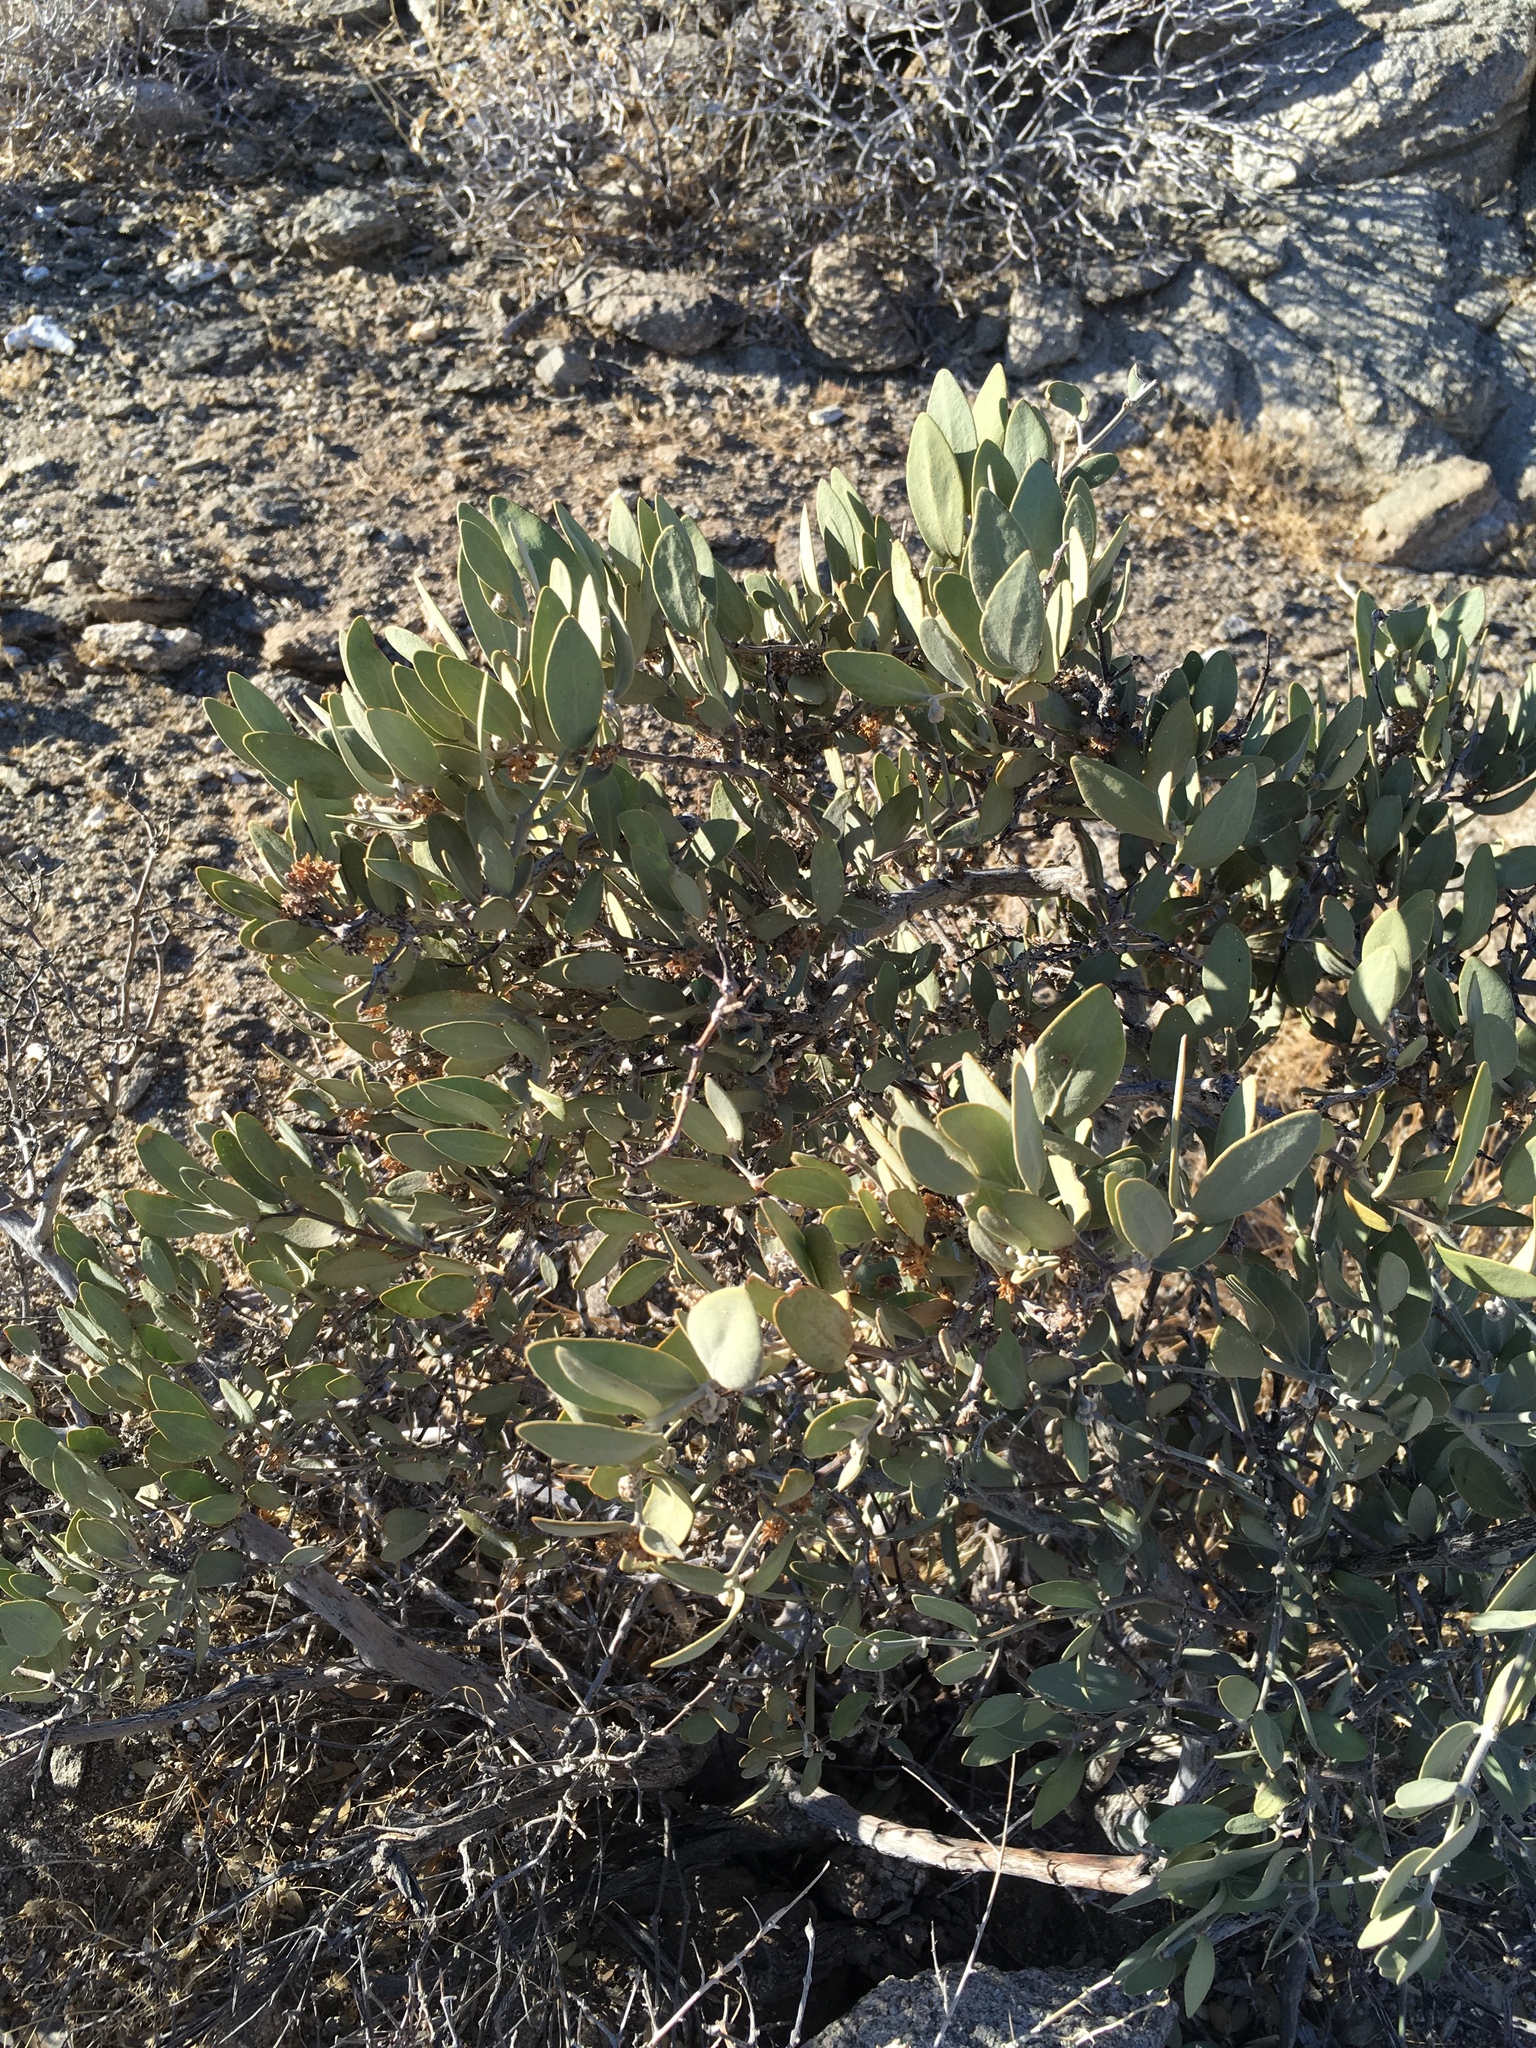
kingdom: Plantae
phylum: Tracheophyta
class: Magnoliopsida
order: Caryophyllales
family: Simmondsiaceae
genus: Simmondsia
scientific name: Simmondsia chinensis
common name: Jojoba
